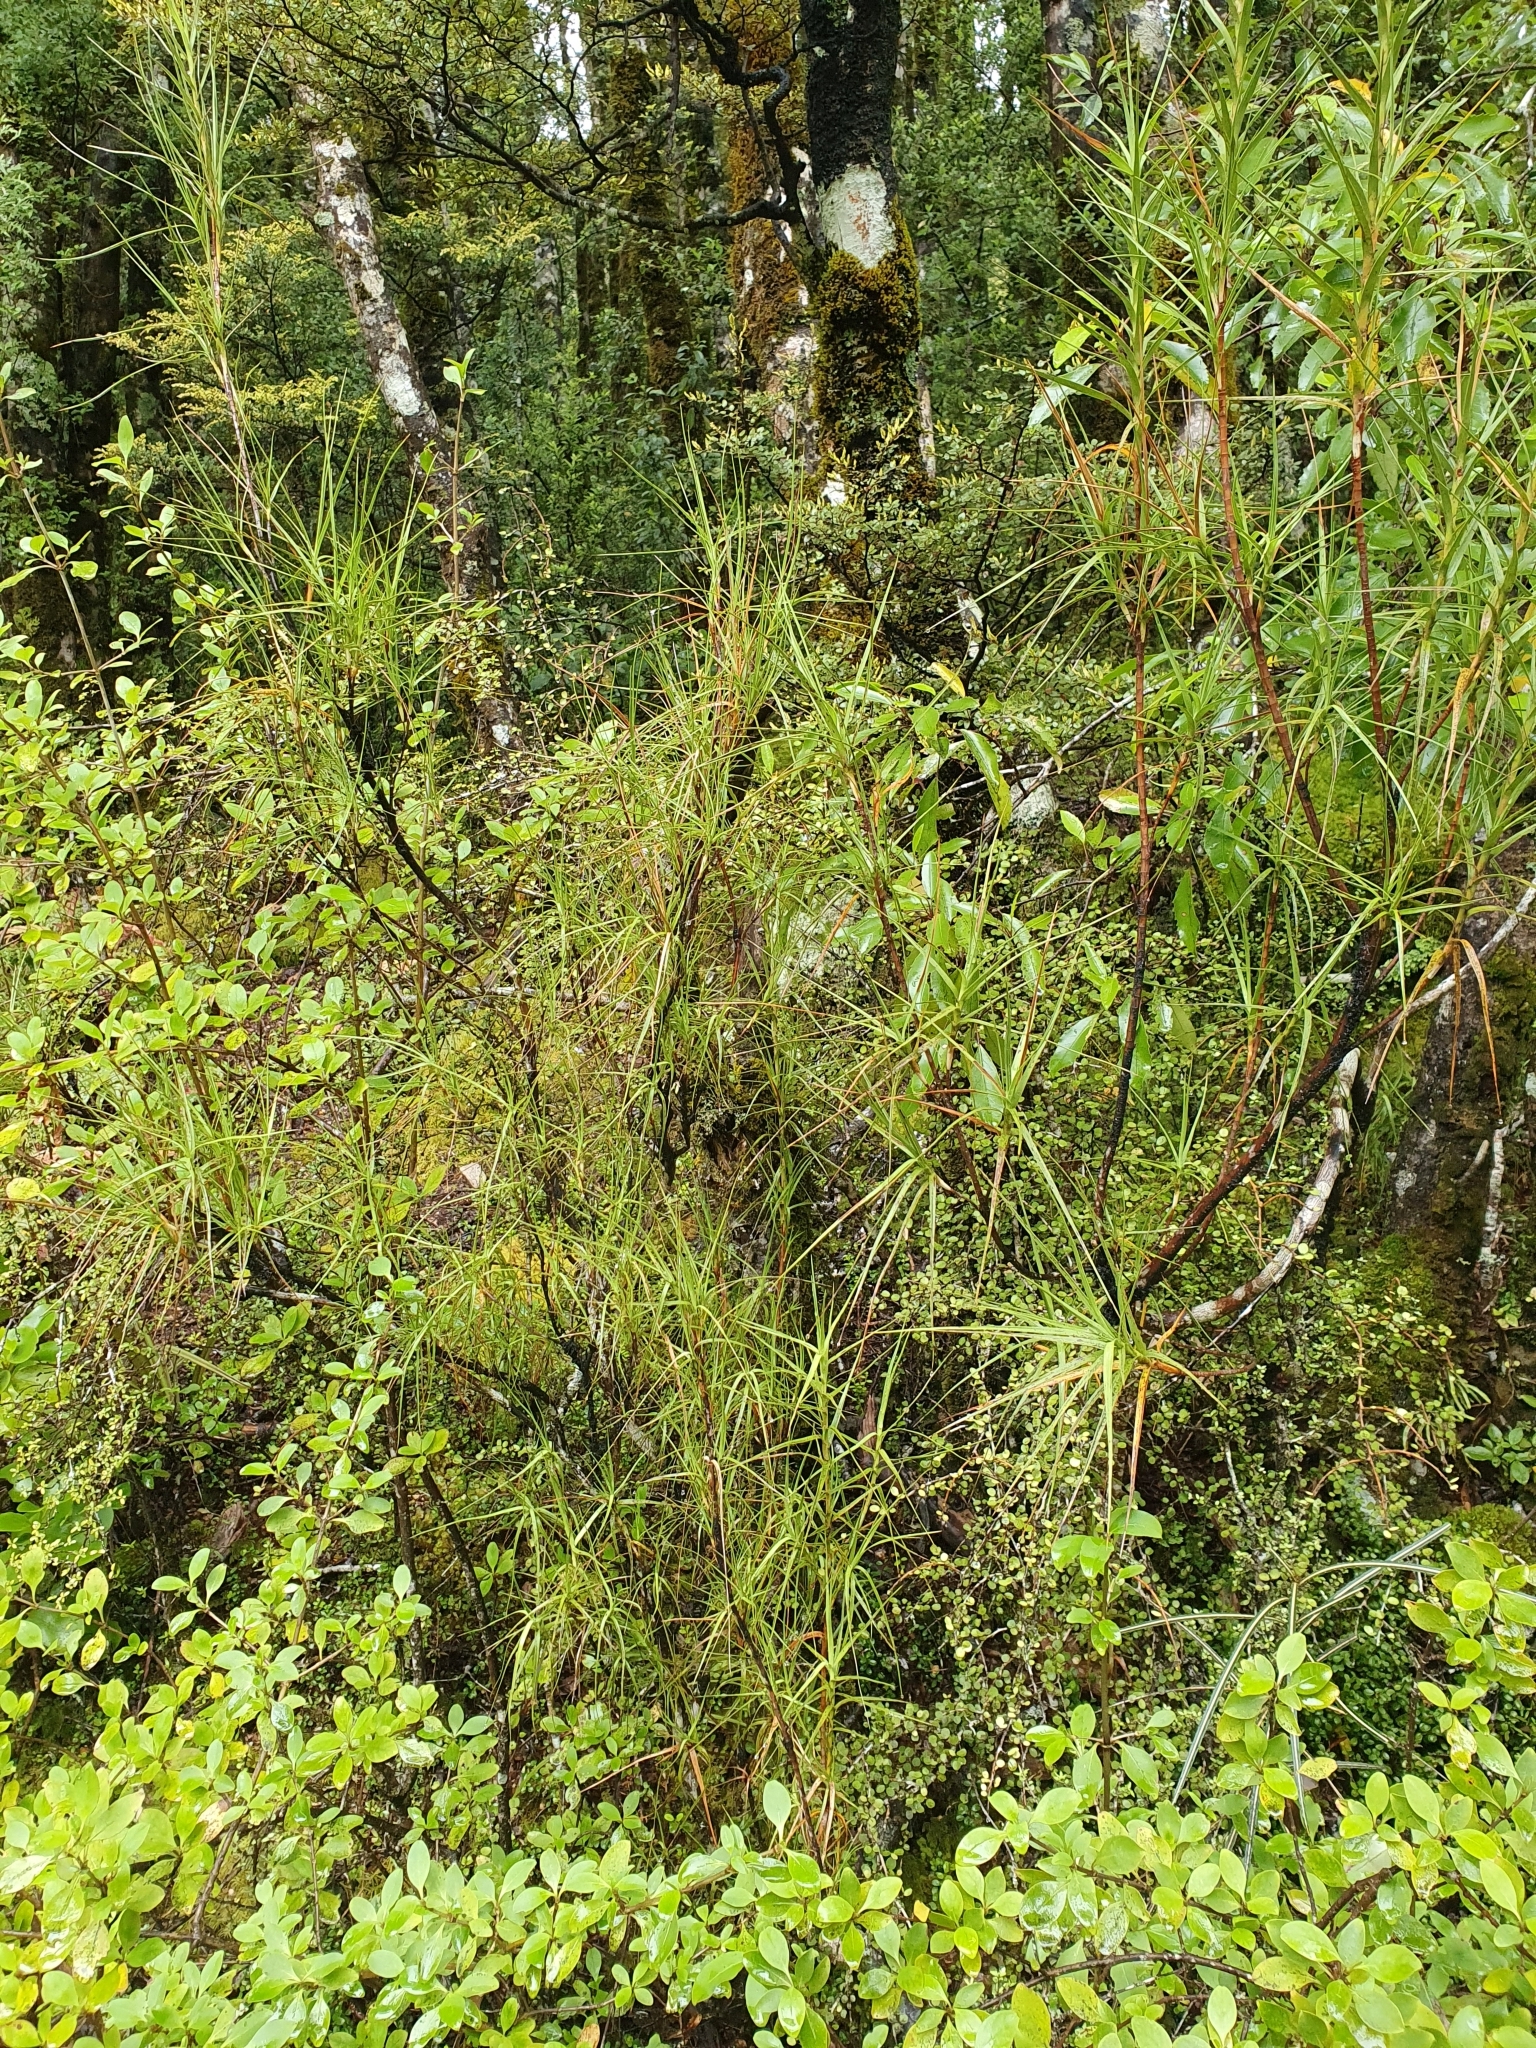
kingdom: Plantae
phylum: Tracheophyta
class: Magnoliopsida
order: Ericales
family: Ericaceae
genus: Dracophyllum
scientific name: Dracophyllum longifolium
